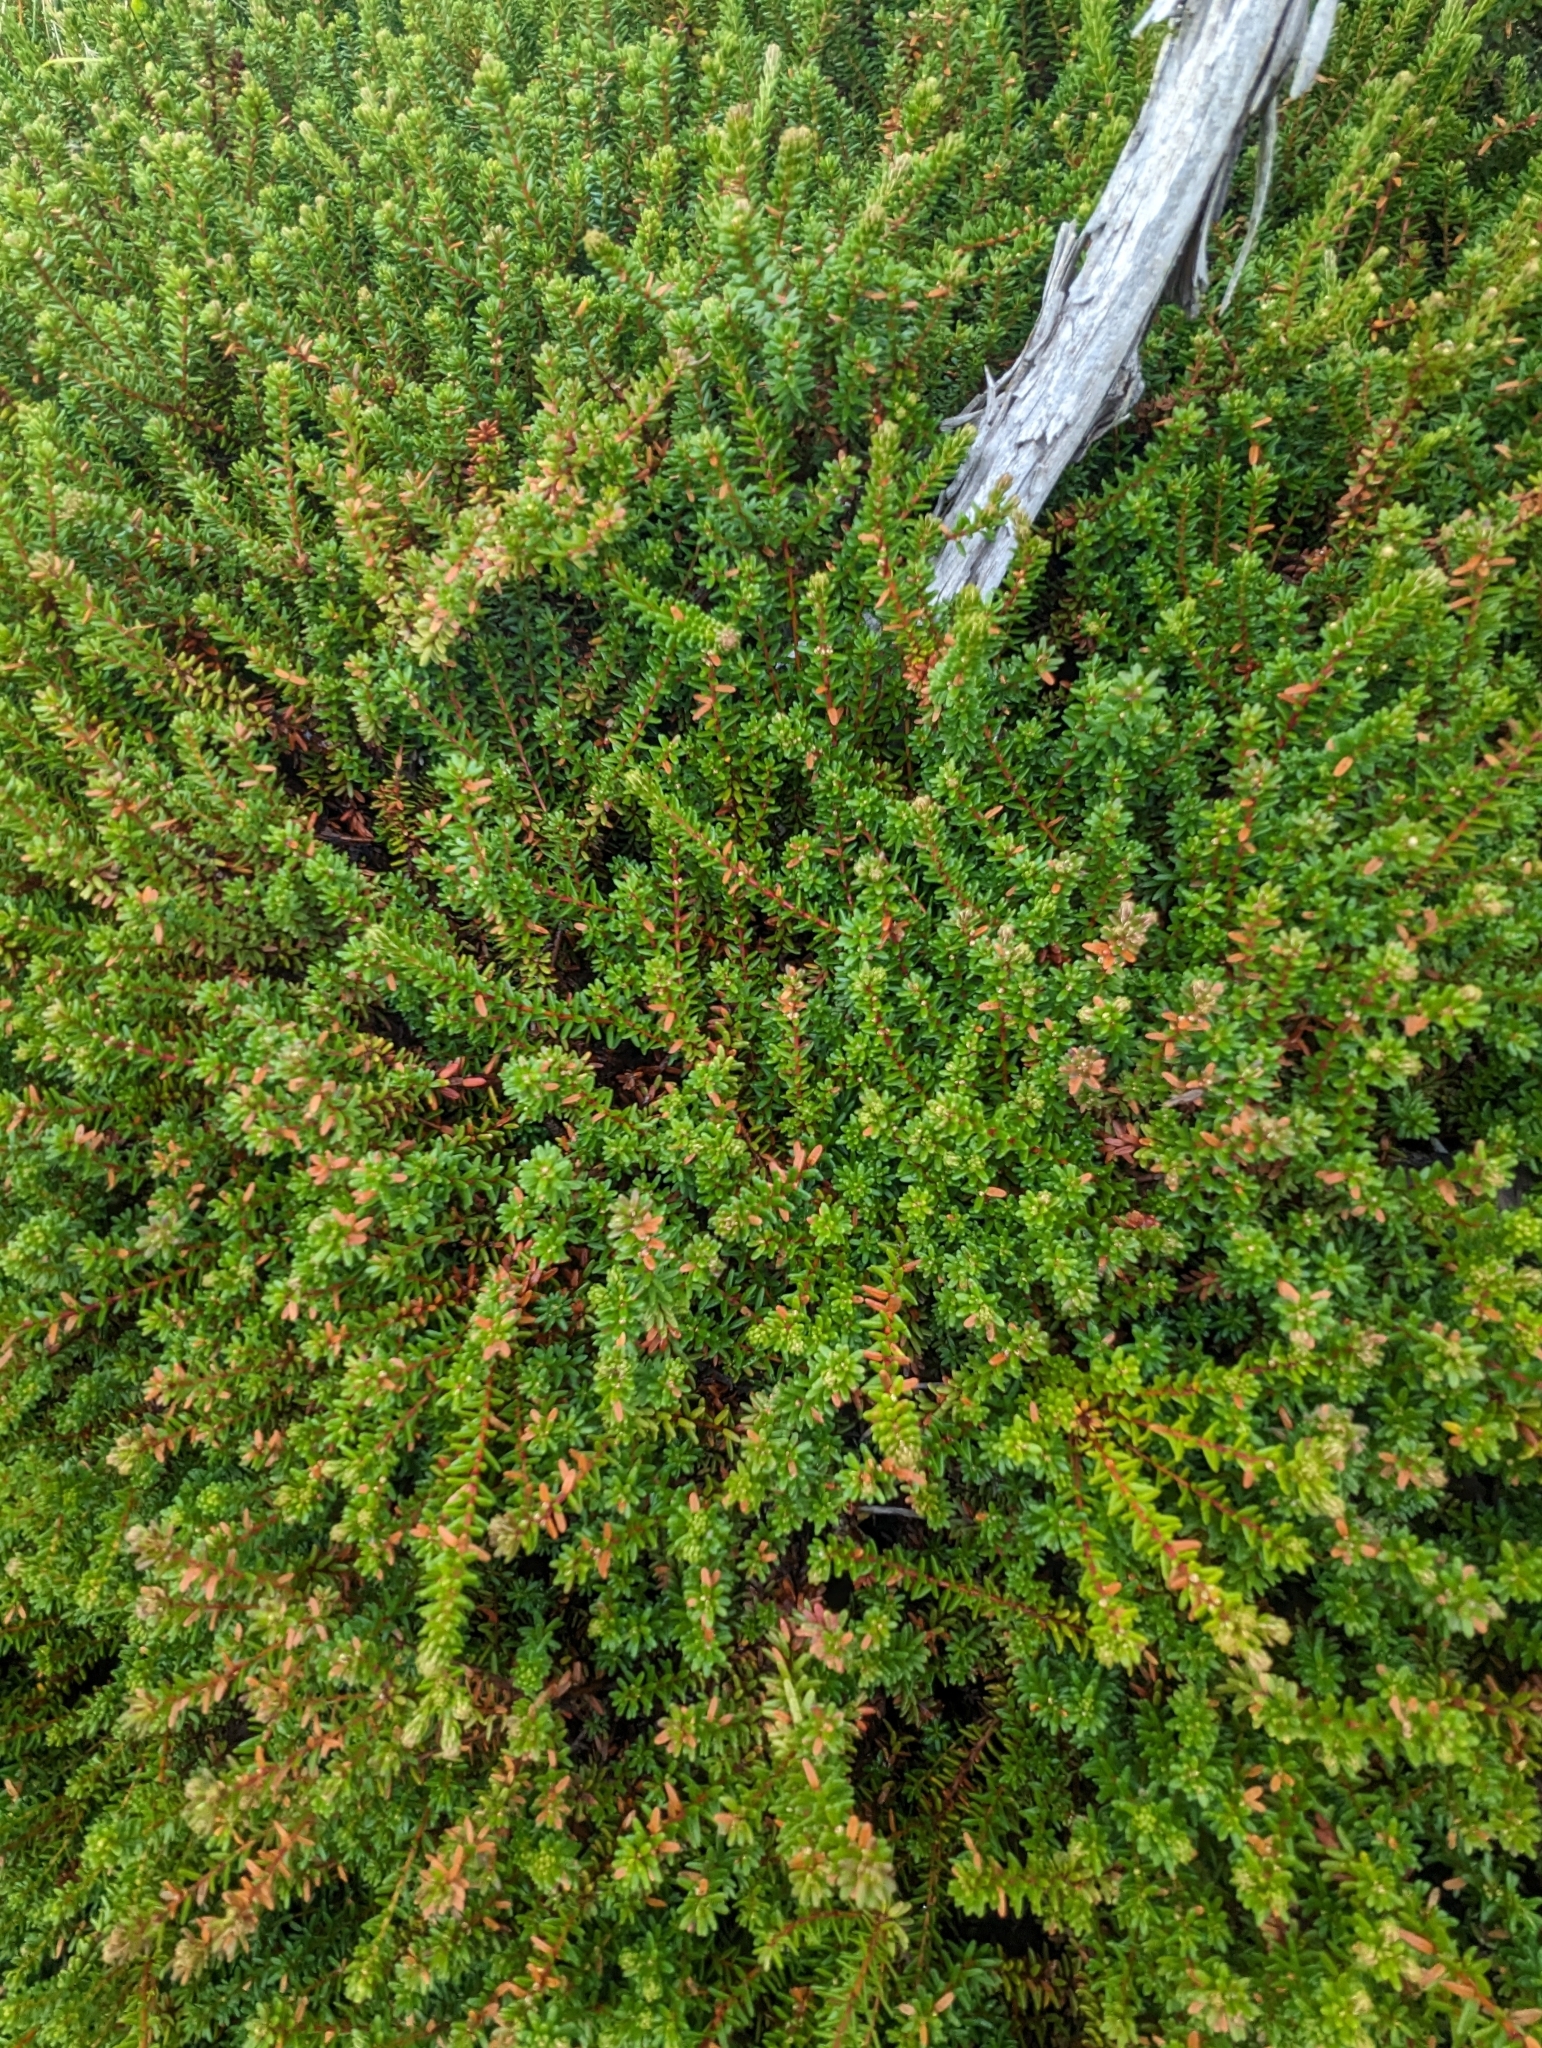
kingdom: Plantae
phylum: Tracheophyta
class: Magnoliopsida
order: Ericales
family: Ericaceae
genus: Empetrum
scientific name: Empetrum nigrum
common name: Black crowberry
